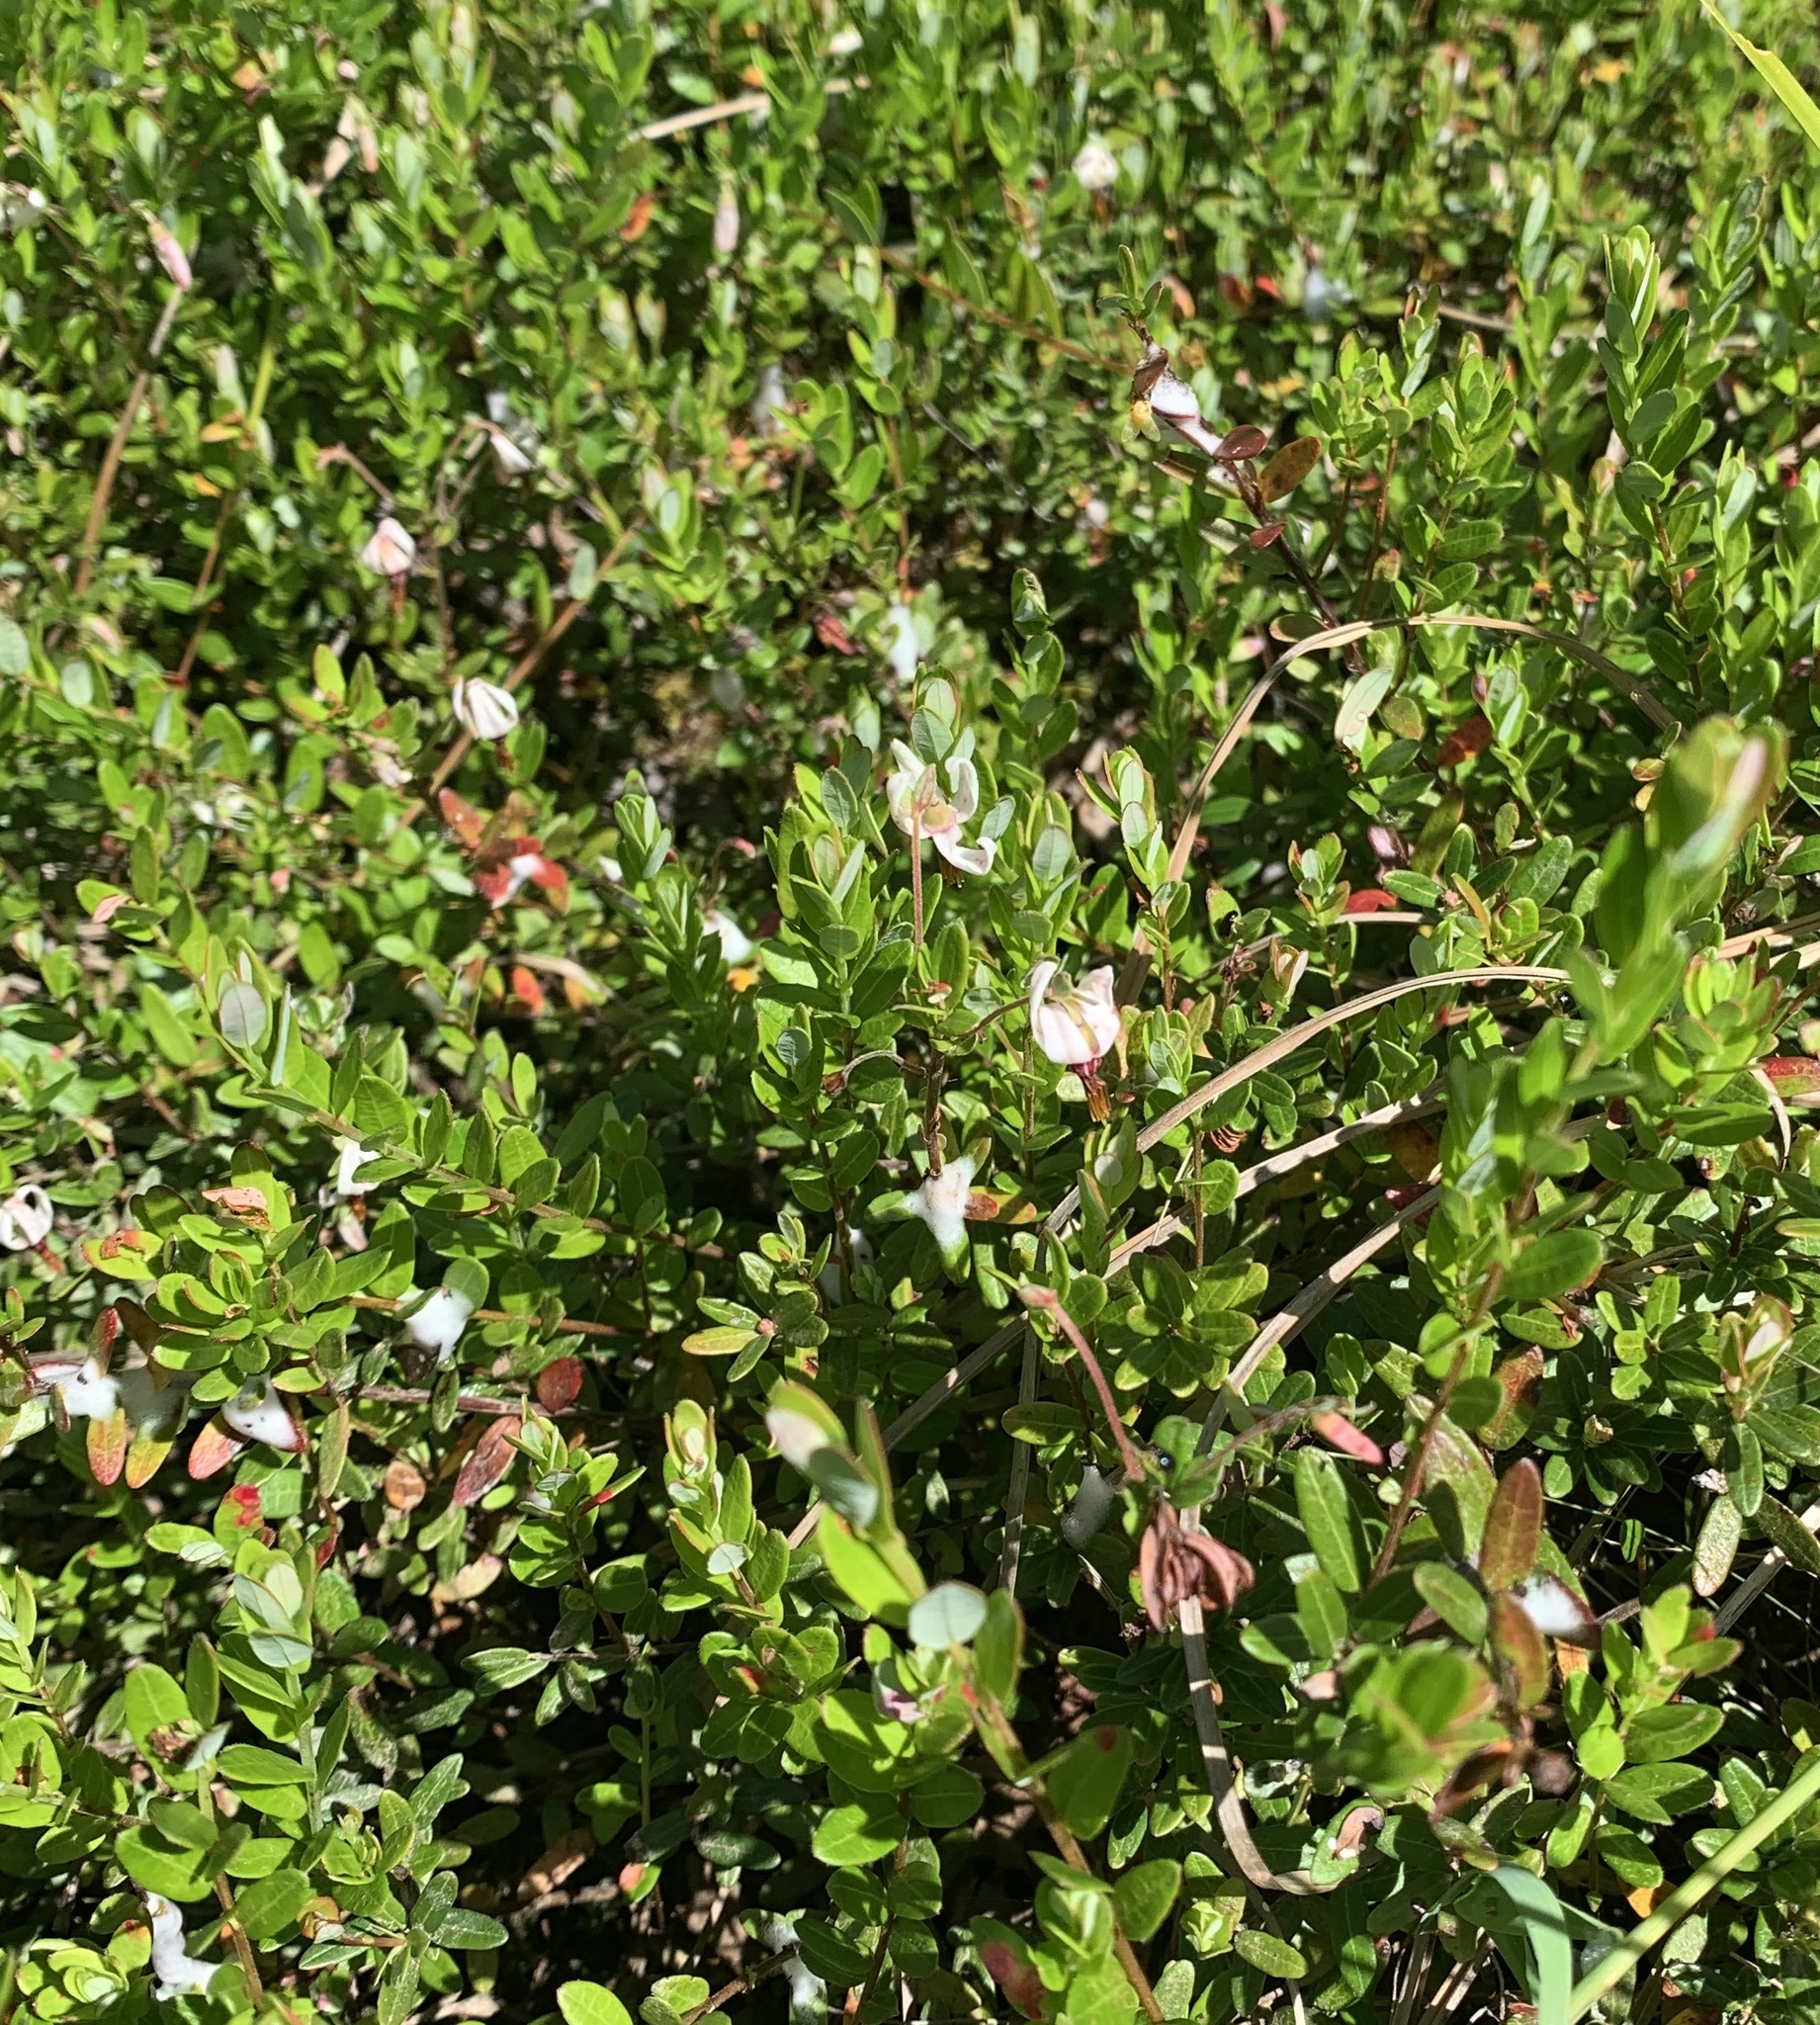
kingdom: Plantae
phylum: Tracheophyta
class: Magnoliopsida
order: Ericales
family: Ericaceae
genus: Vaccinium
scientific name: Vaccinium macrocarpon
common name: American cranberry
